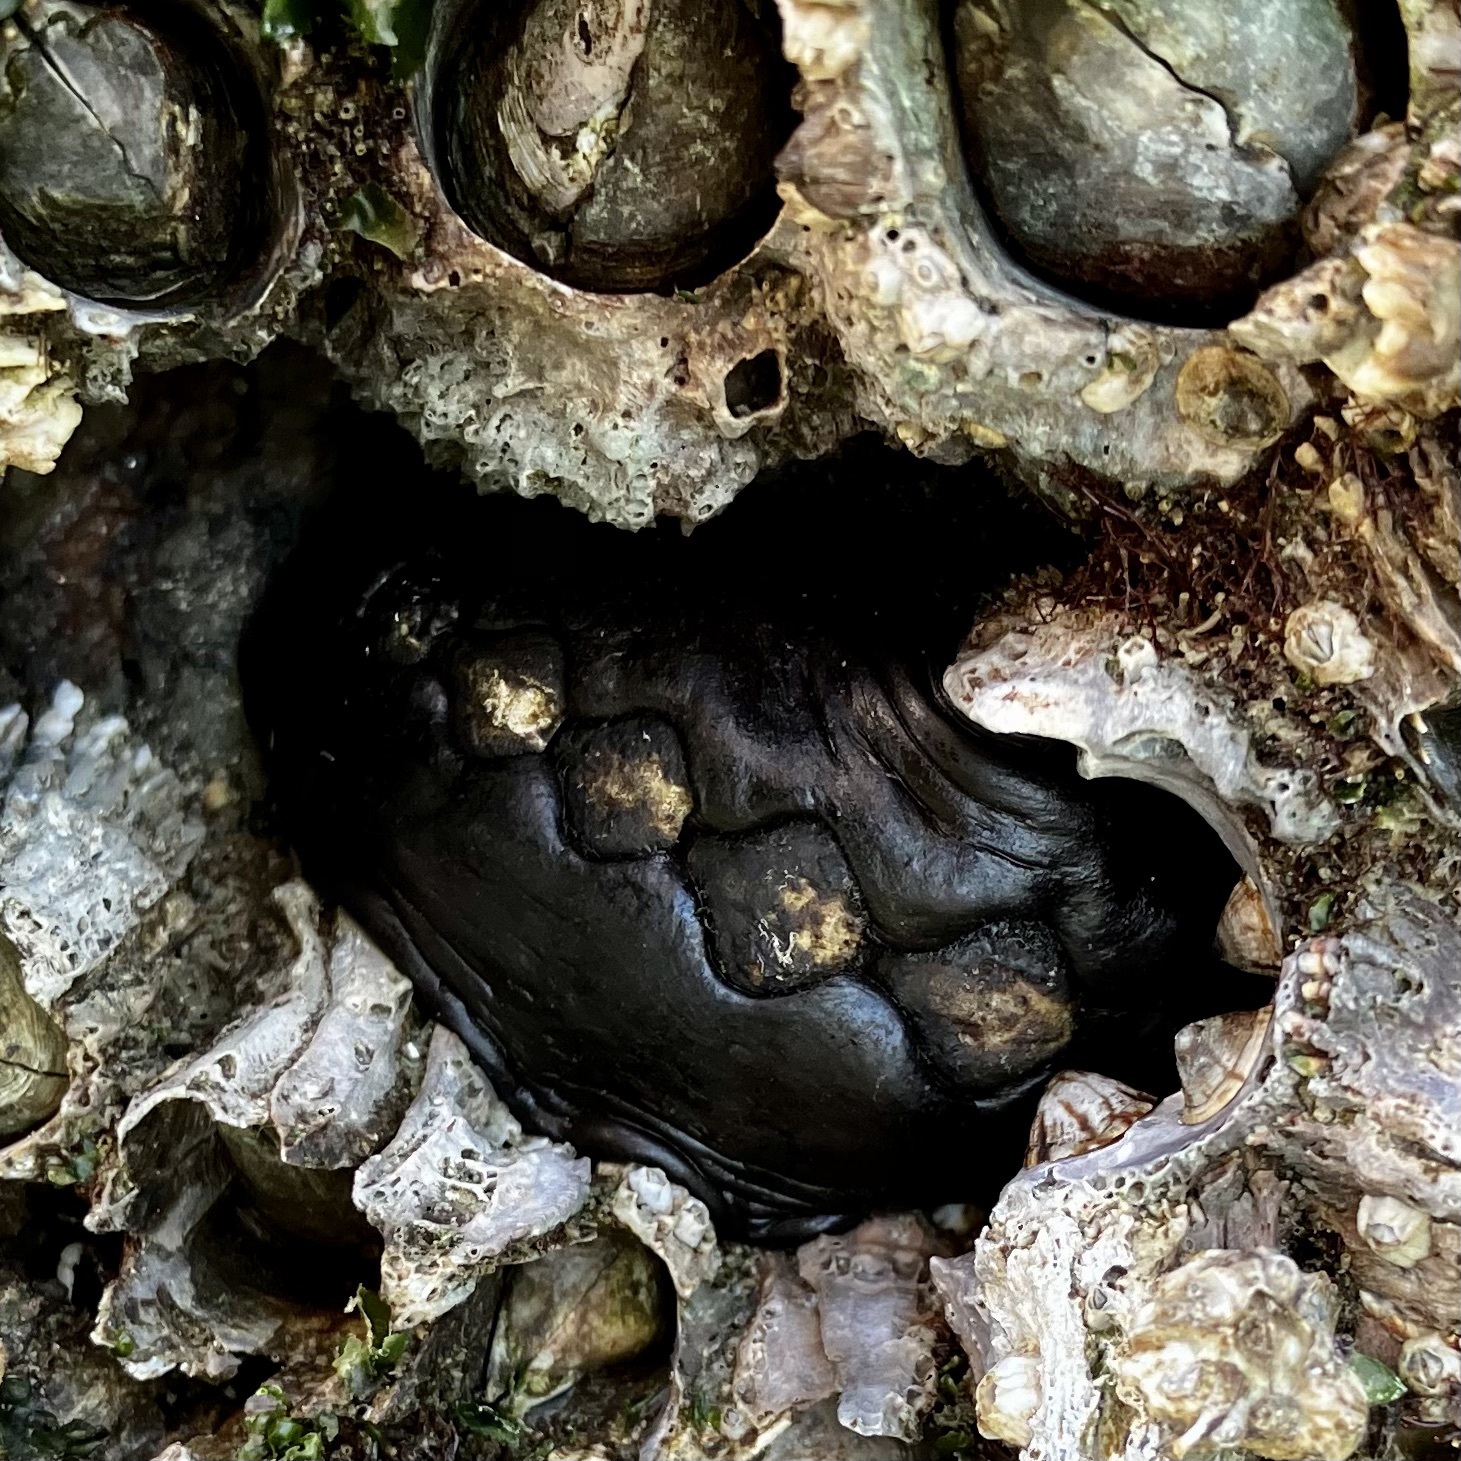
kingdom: Animalia
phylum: Mollusca
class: Polyplacophora
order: Chitonida
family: Mopaliidae
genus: Katharina
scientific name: Katharina tunicata
